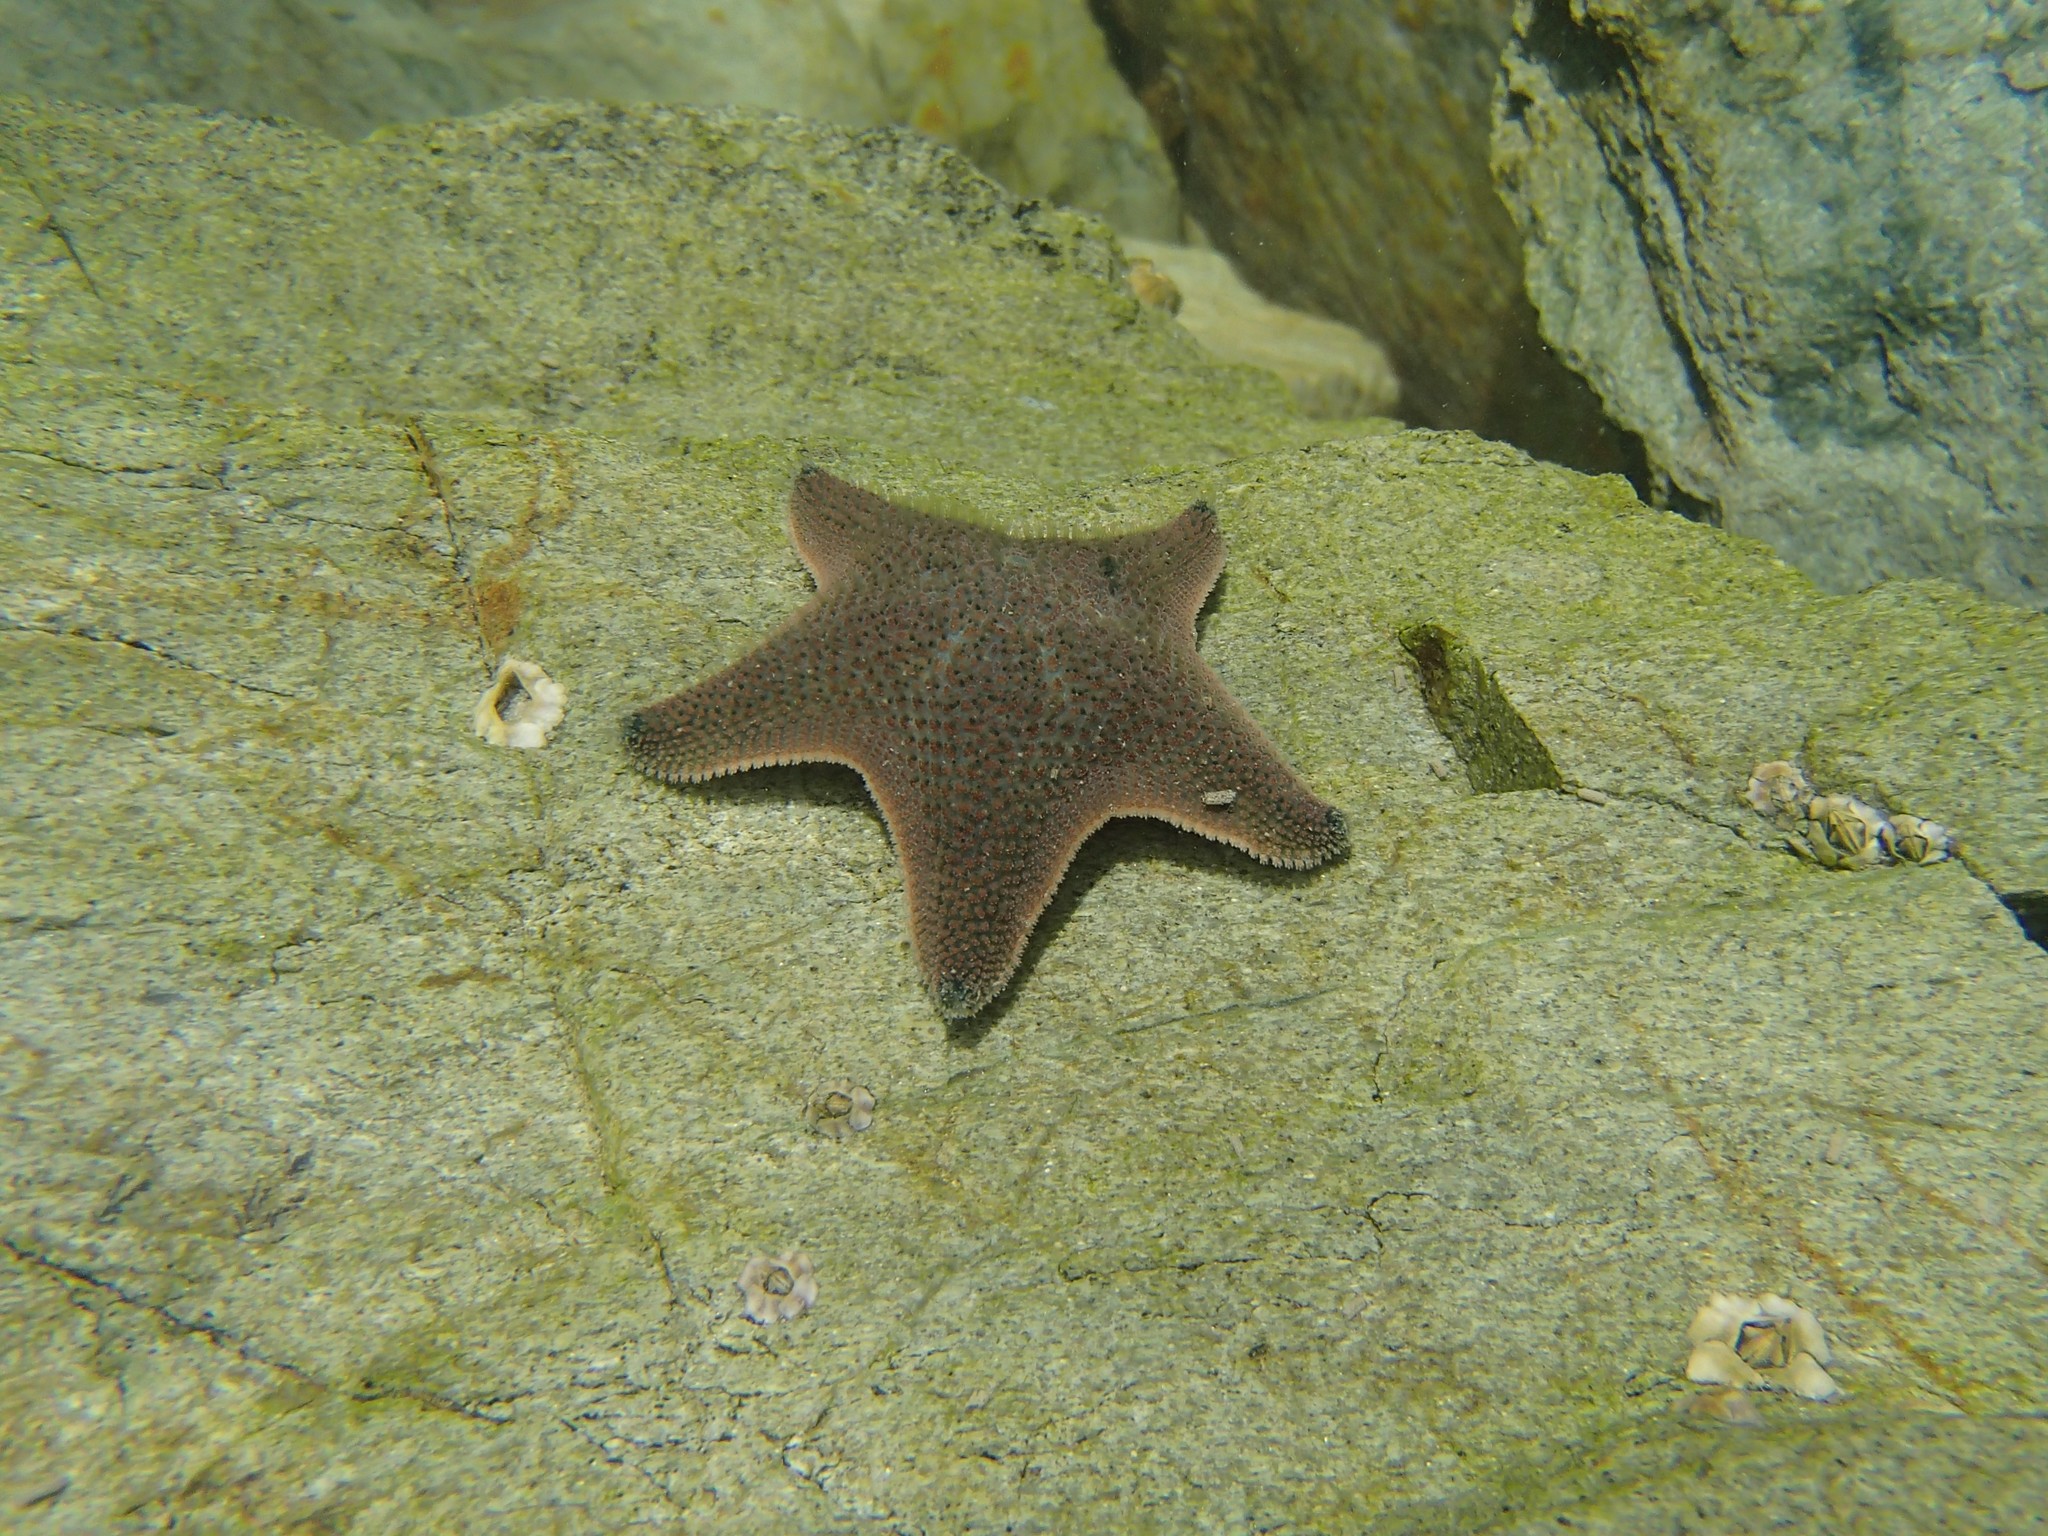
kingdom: Animalia
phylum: Echinodermata
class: Asteroidea
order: Valvatida
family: Asterinidae
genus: Patiriella
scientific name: Patiriella regularis
